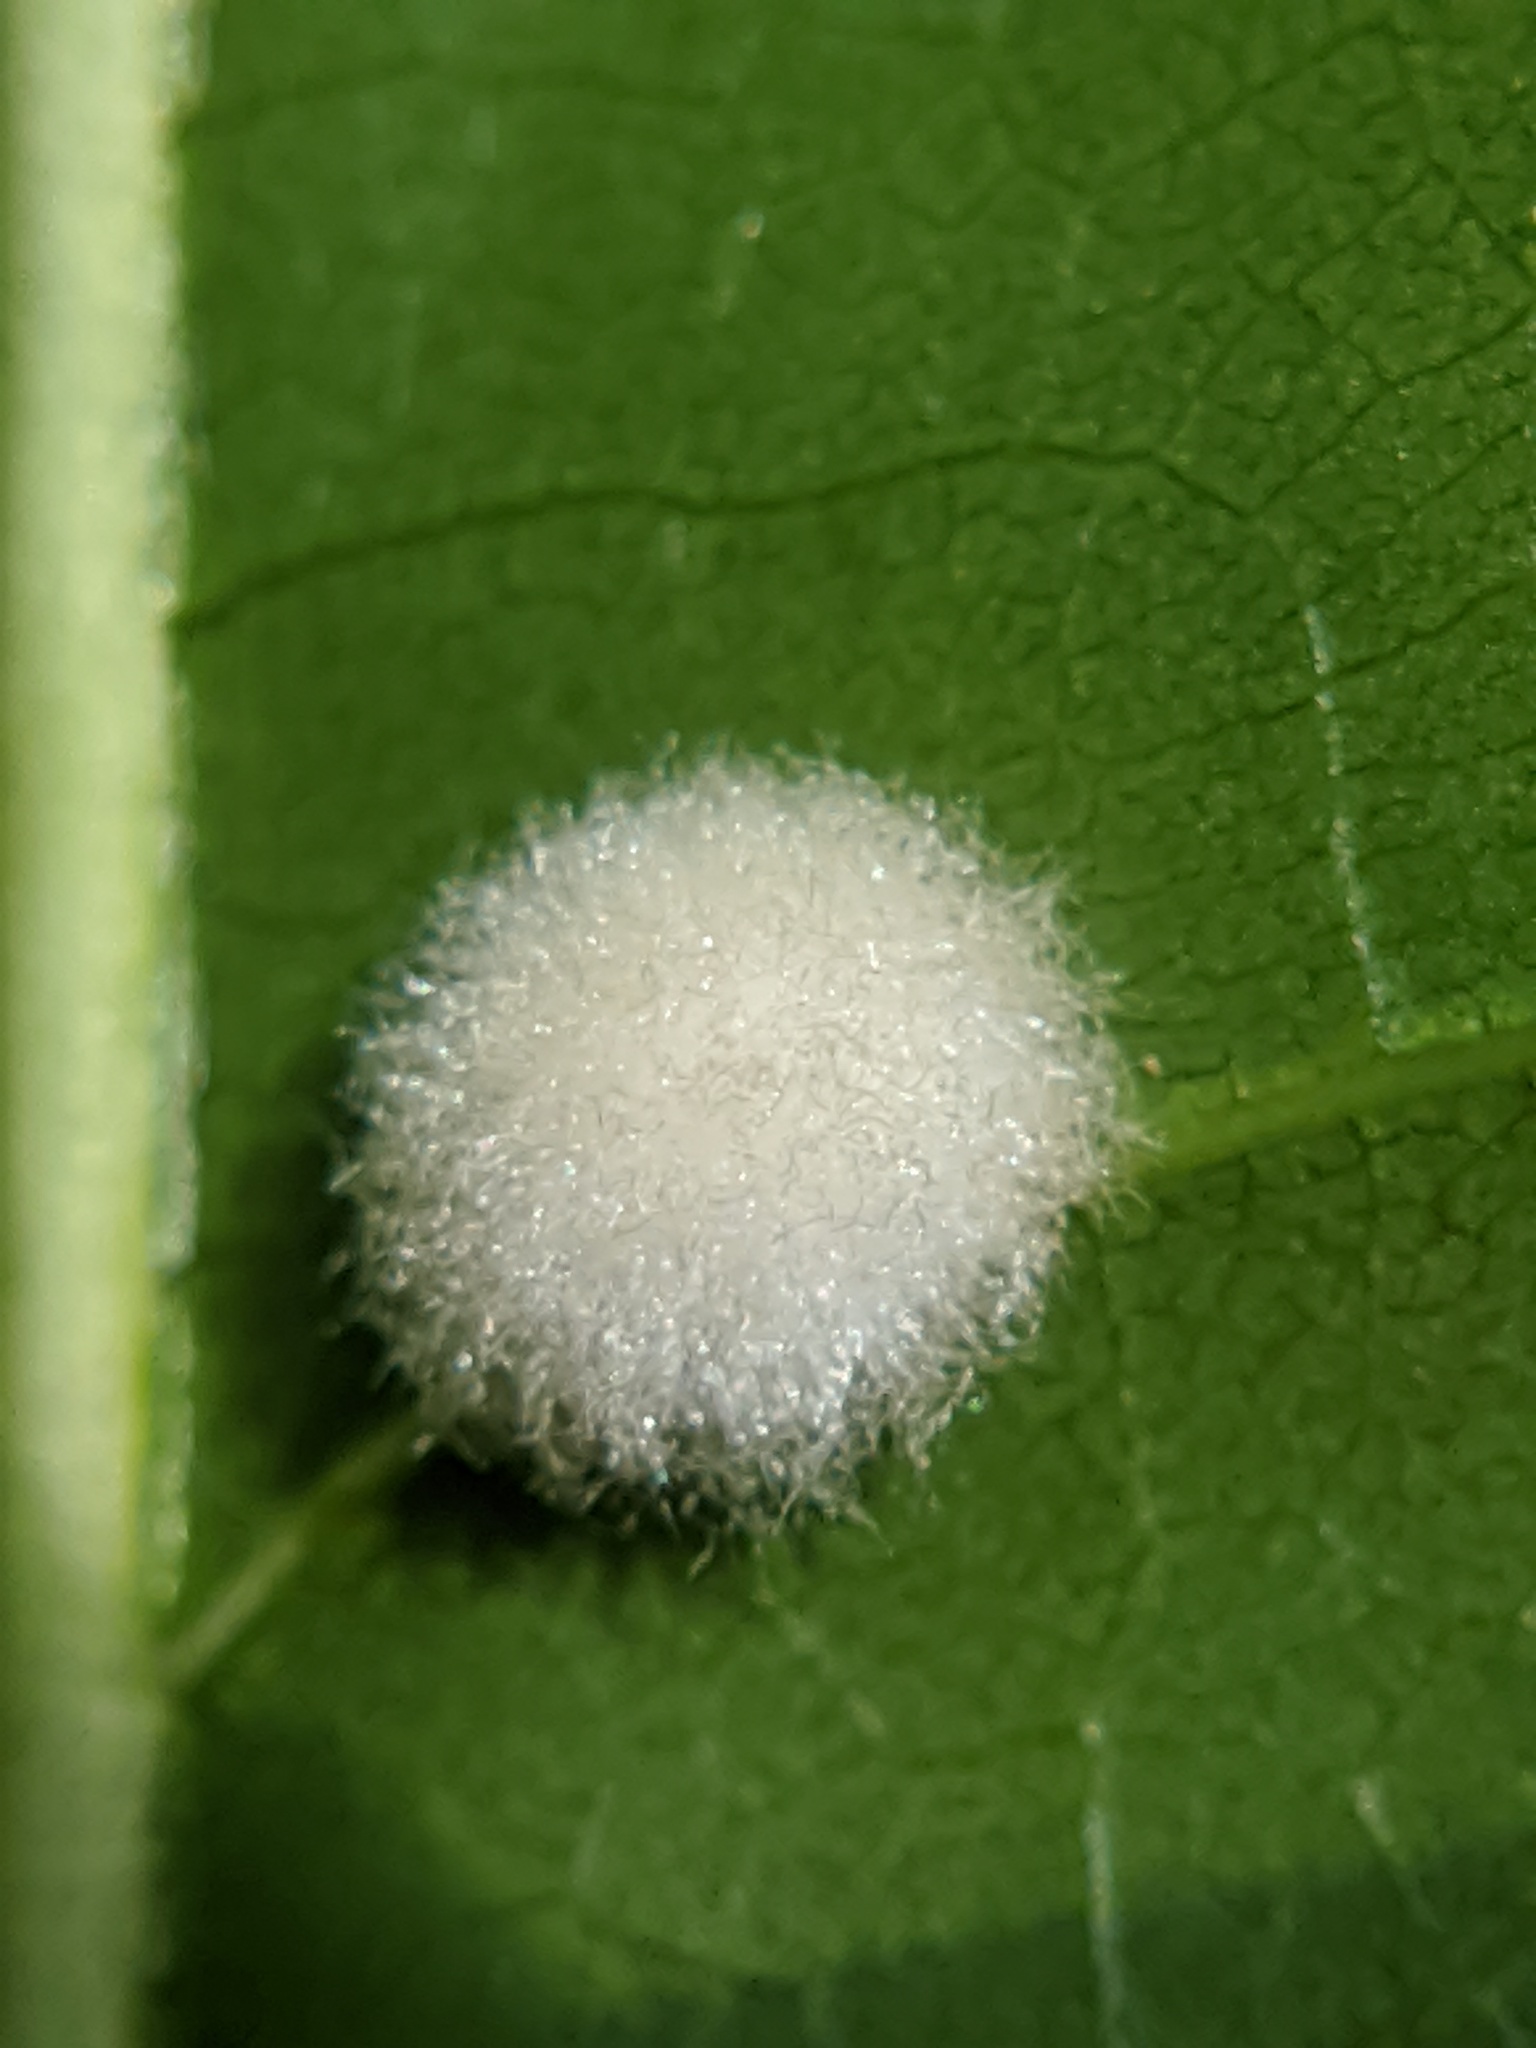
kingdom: Animalia
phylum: Arthropoda
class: Insecta
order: Hymenoptera
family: Cynipidae
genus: Callirhytis
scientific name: Callirhytis
